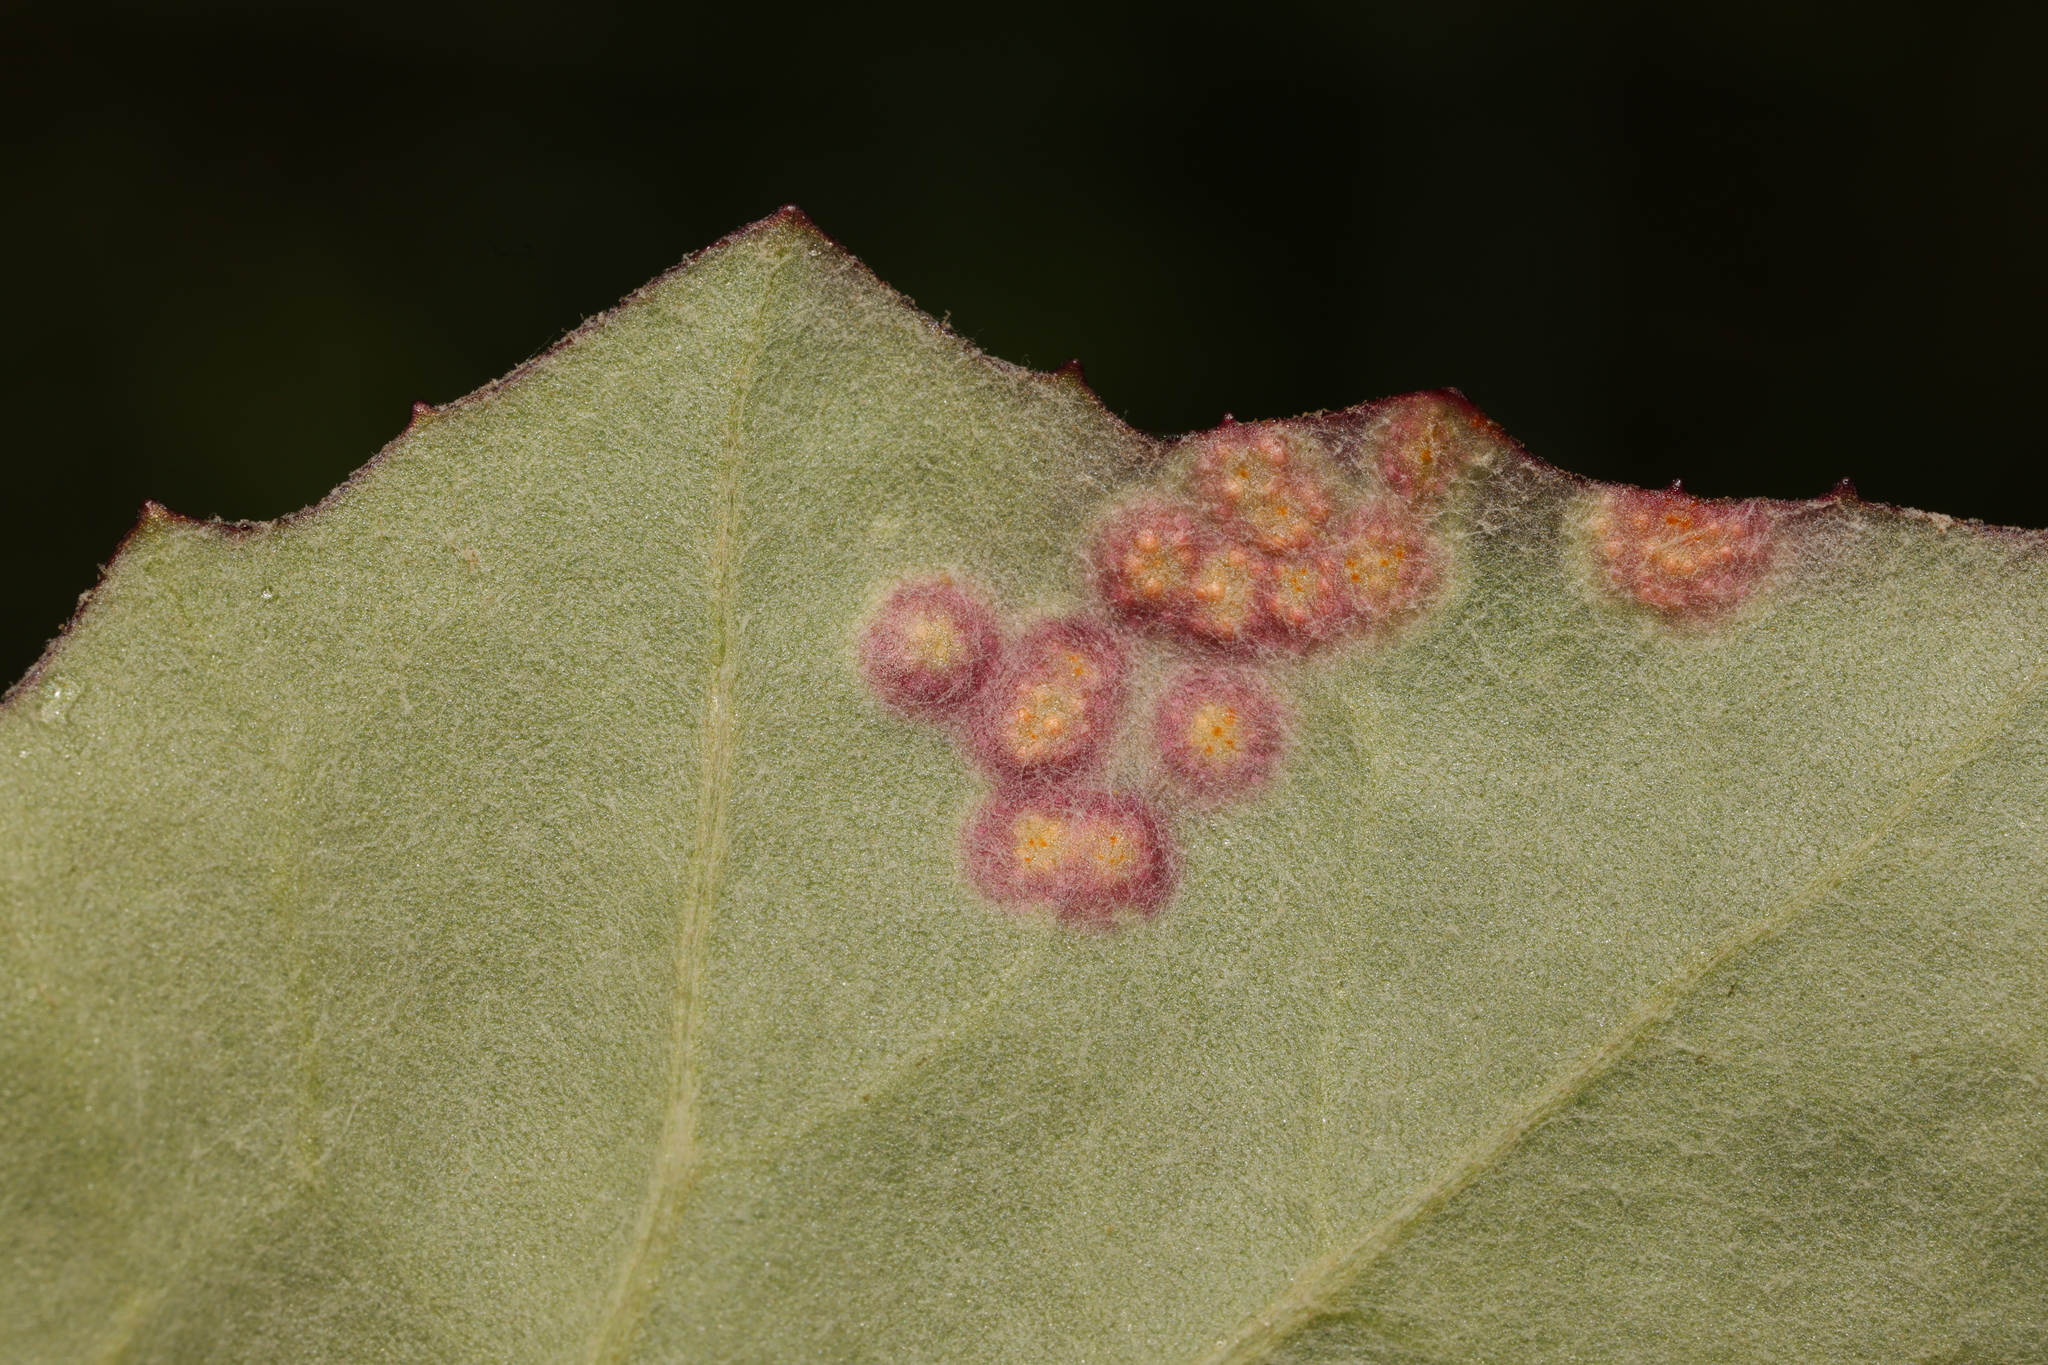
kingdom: Fungi
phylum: Basidiomycota
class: Pucciniomycetes
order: Pucciniales
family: Pucciniaceae
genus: Puccinia
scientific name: Puccinia
